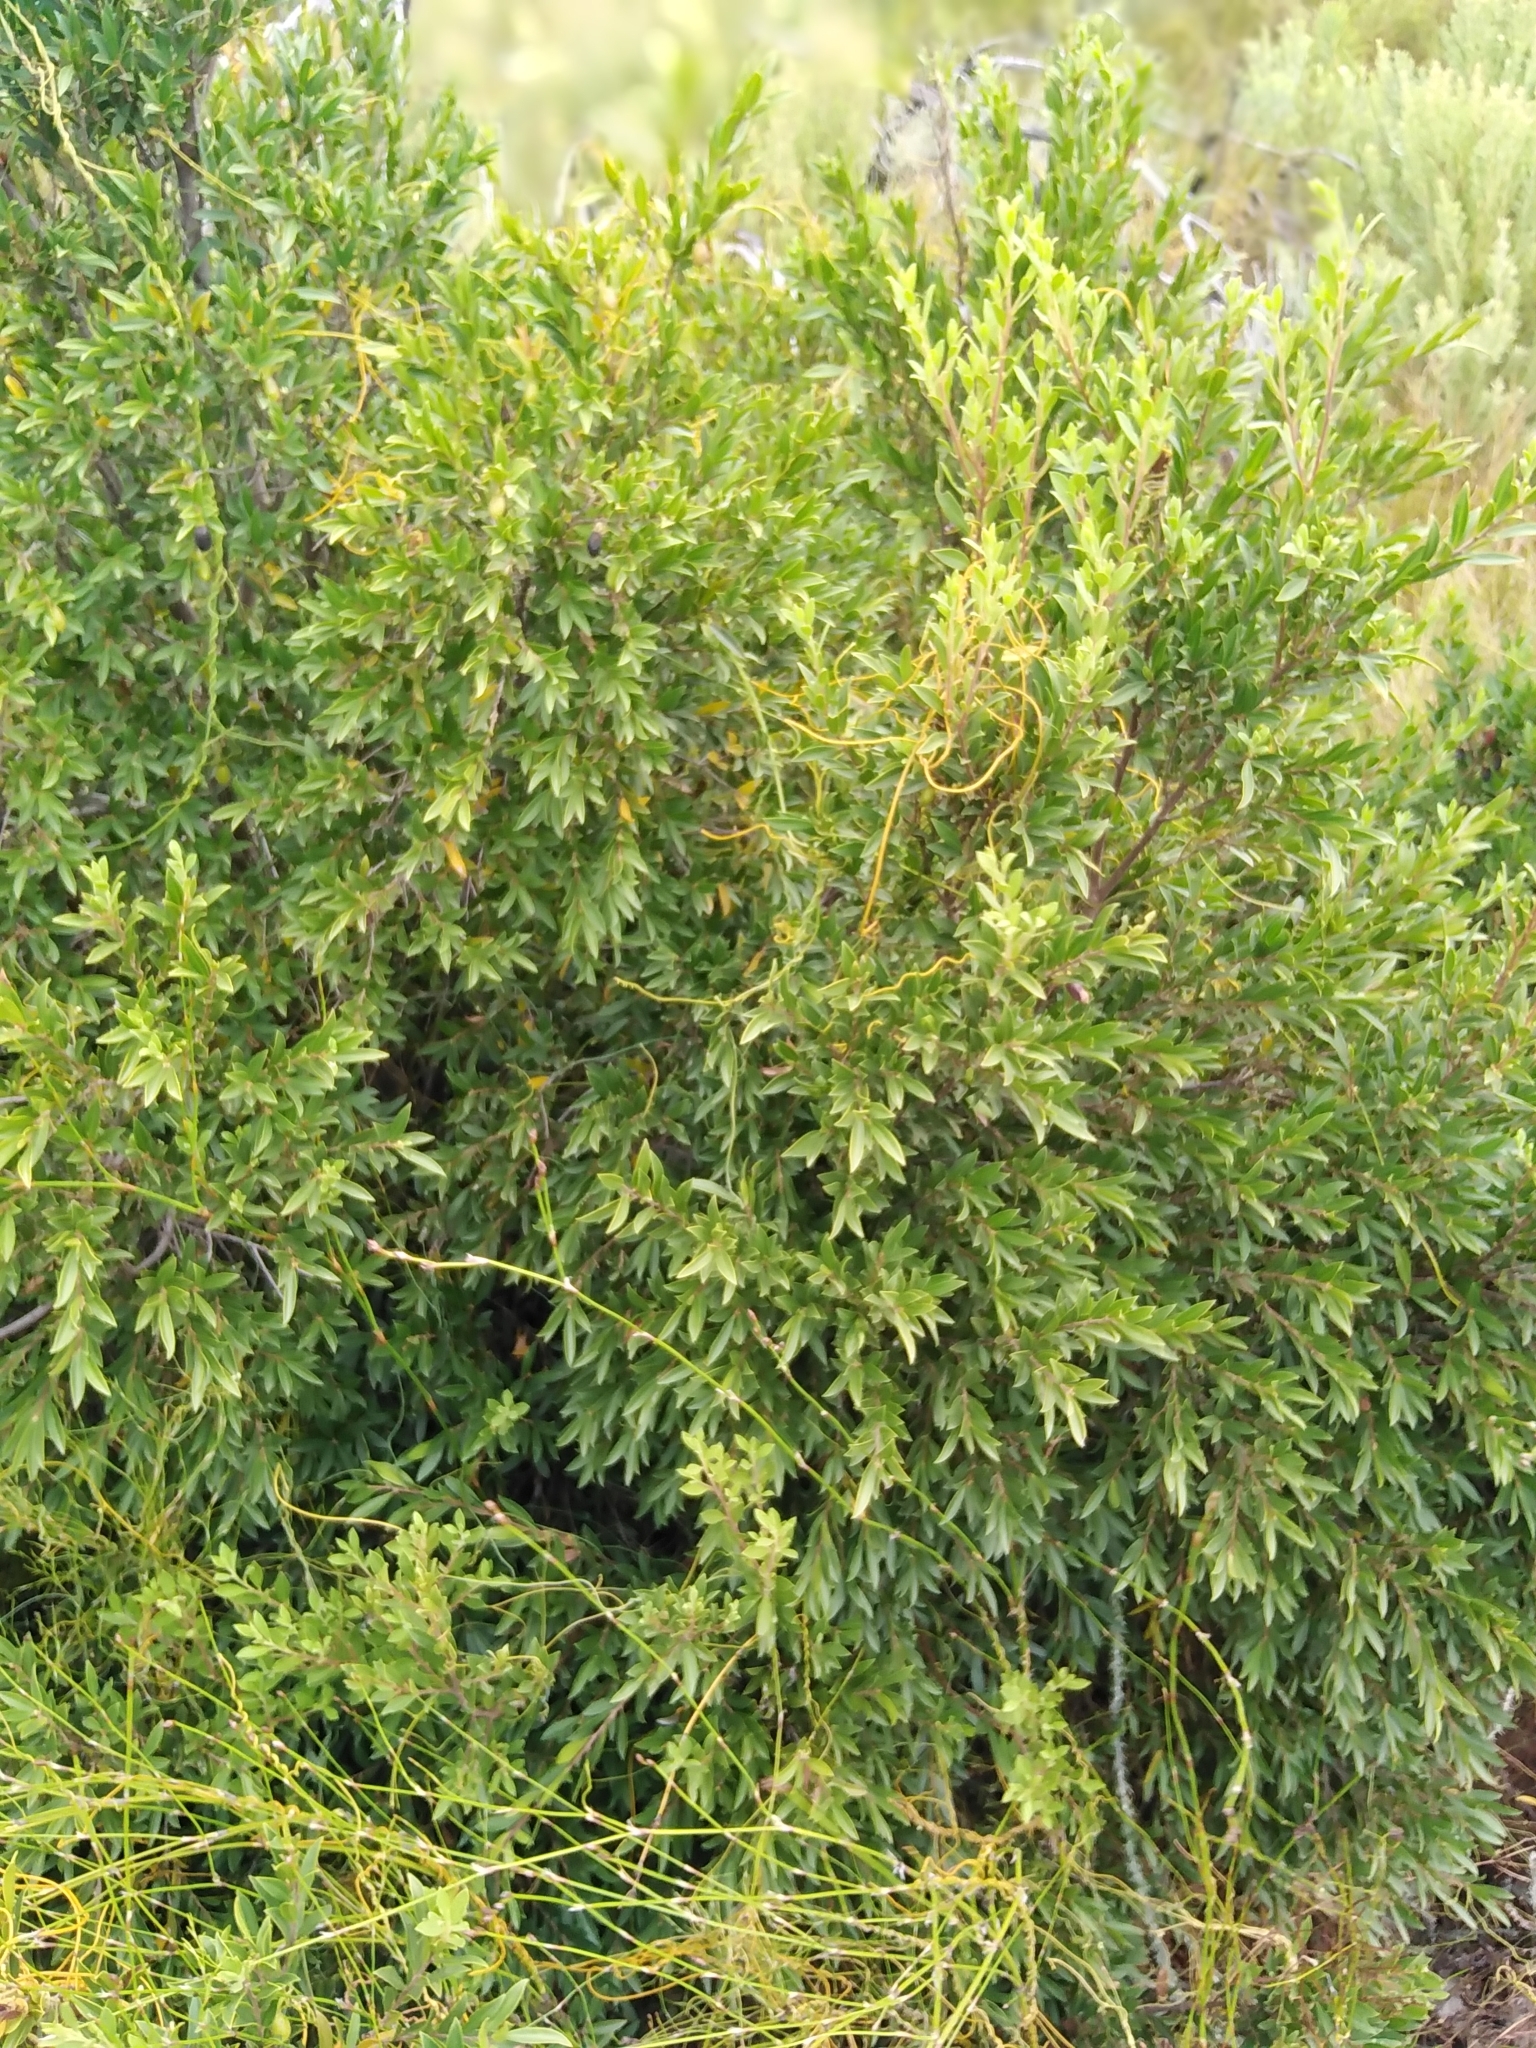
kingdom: Plantae
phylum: Tracheophyta
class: Magnoliopsida
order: Ericales
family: Ebenaceae
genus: Diospyros
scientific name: Diospyros glabra
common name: Fynbos star apple
